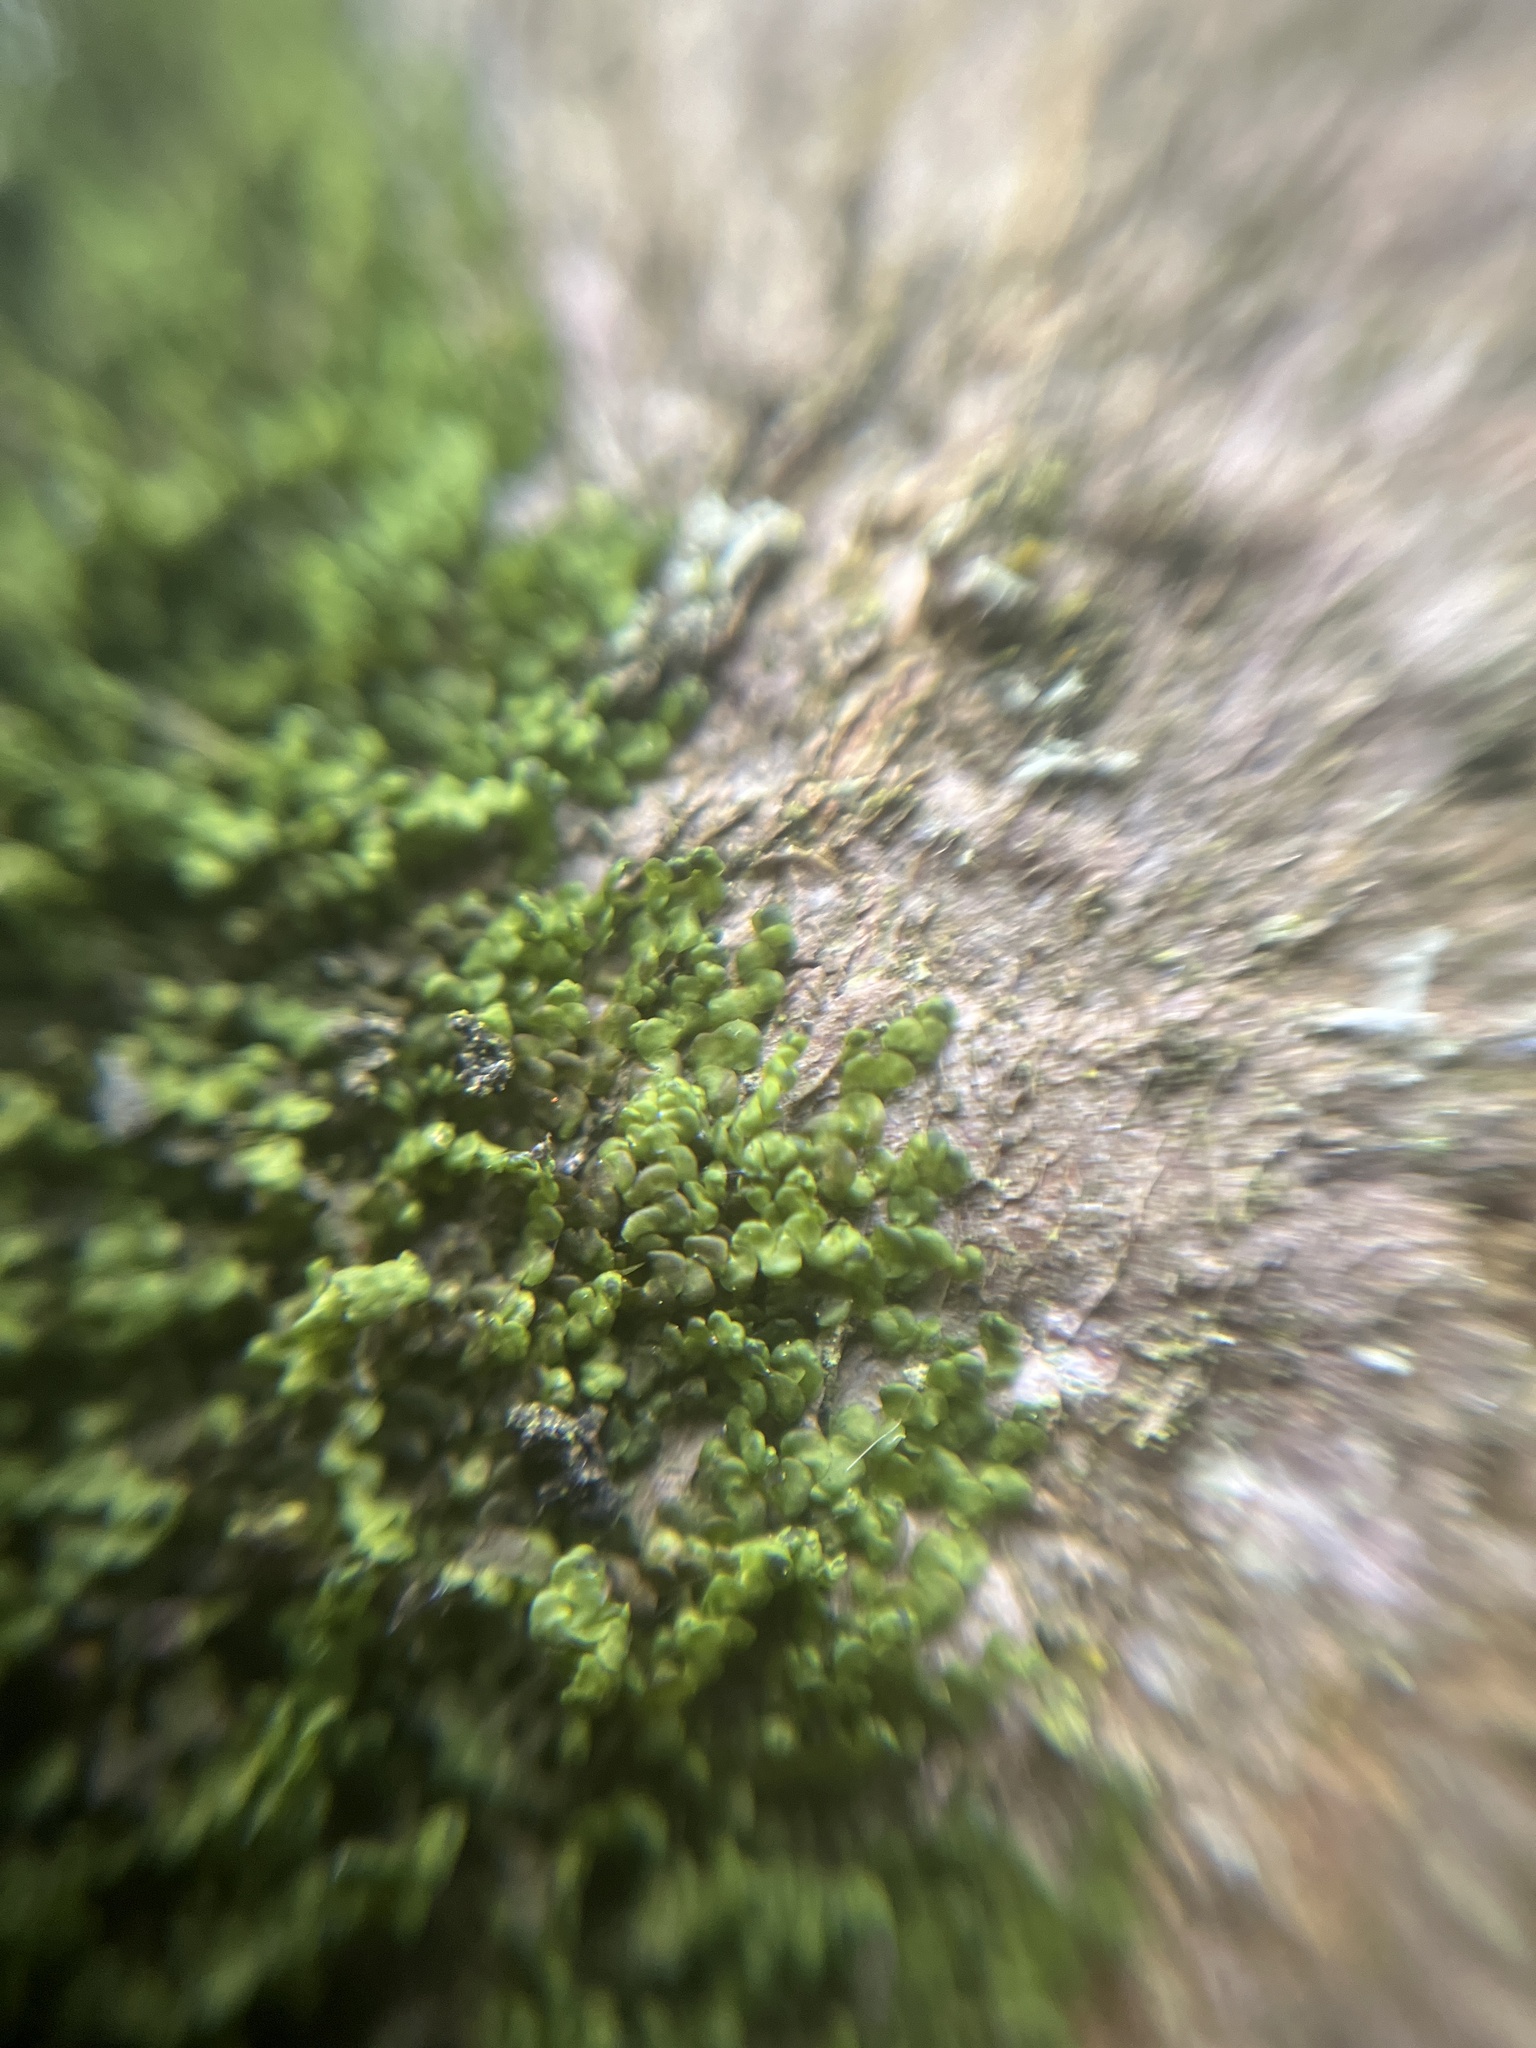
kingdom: Plantae
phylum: Marchantiophyta
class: Jungermanniopsida
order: Porellales
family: Frullaniaceae
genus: Frullania
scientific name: Frullania dilatata
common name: Dilated scalewort
